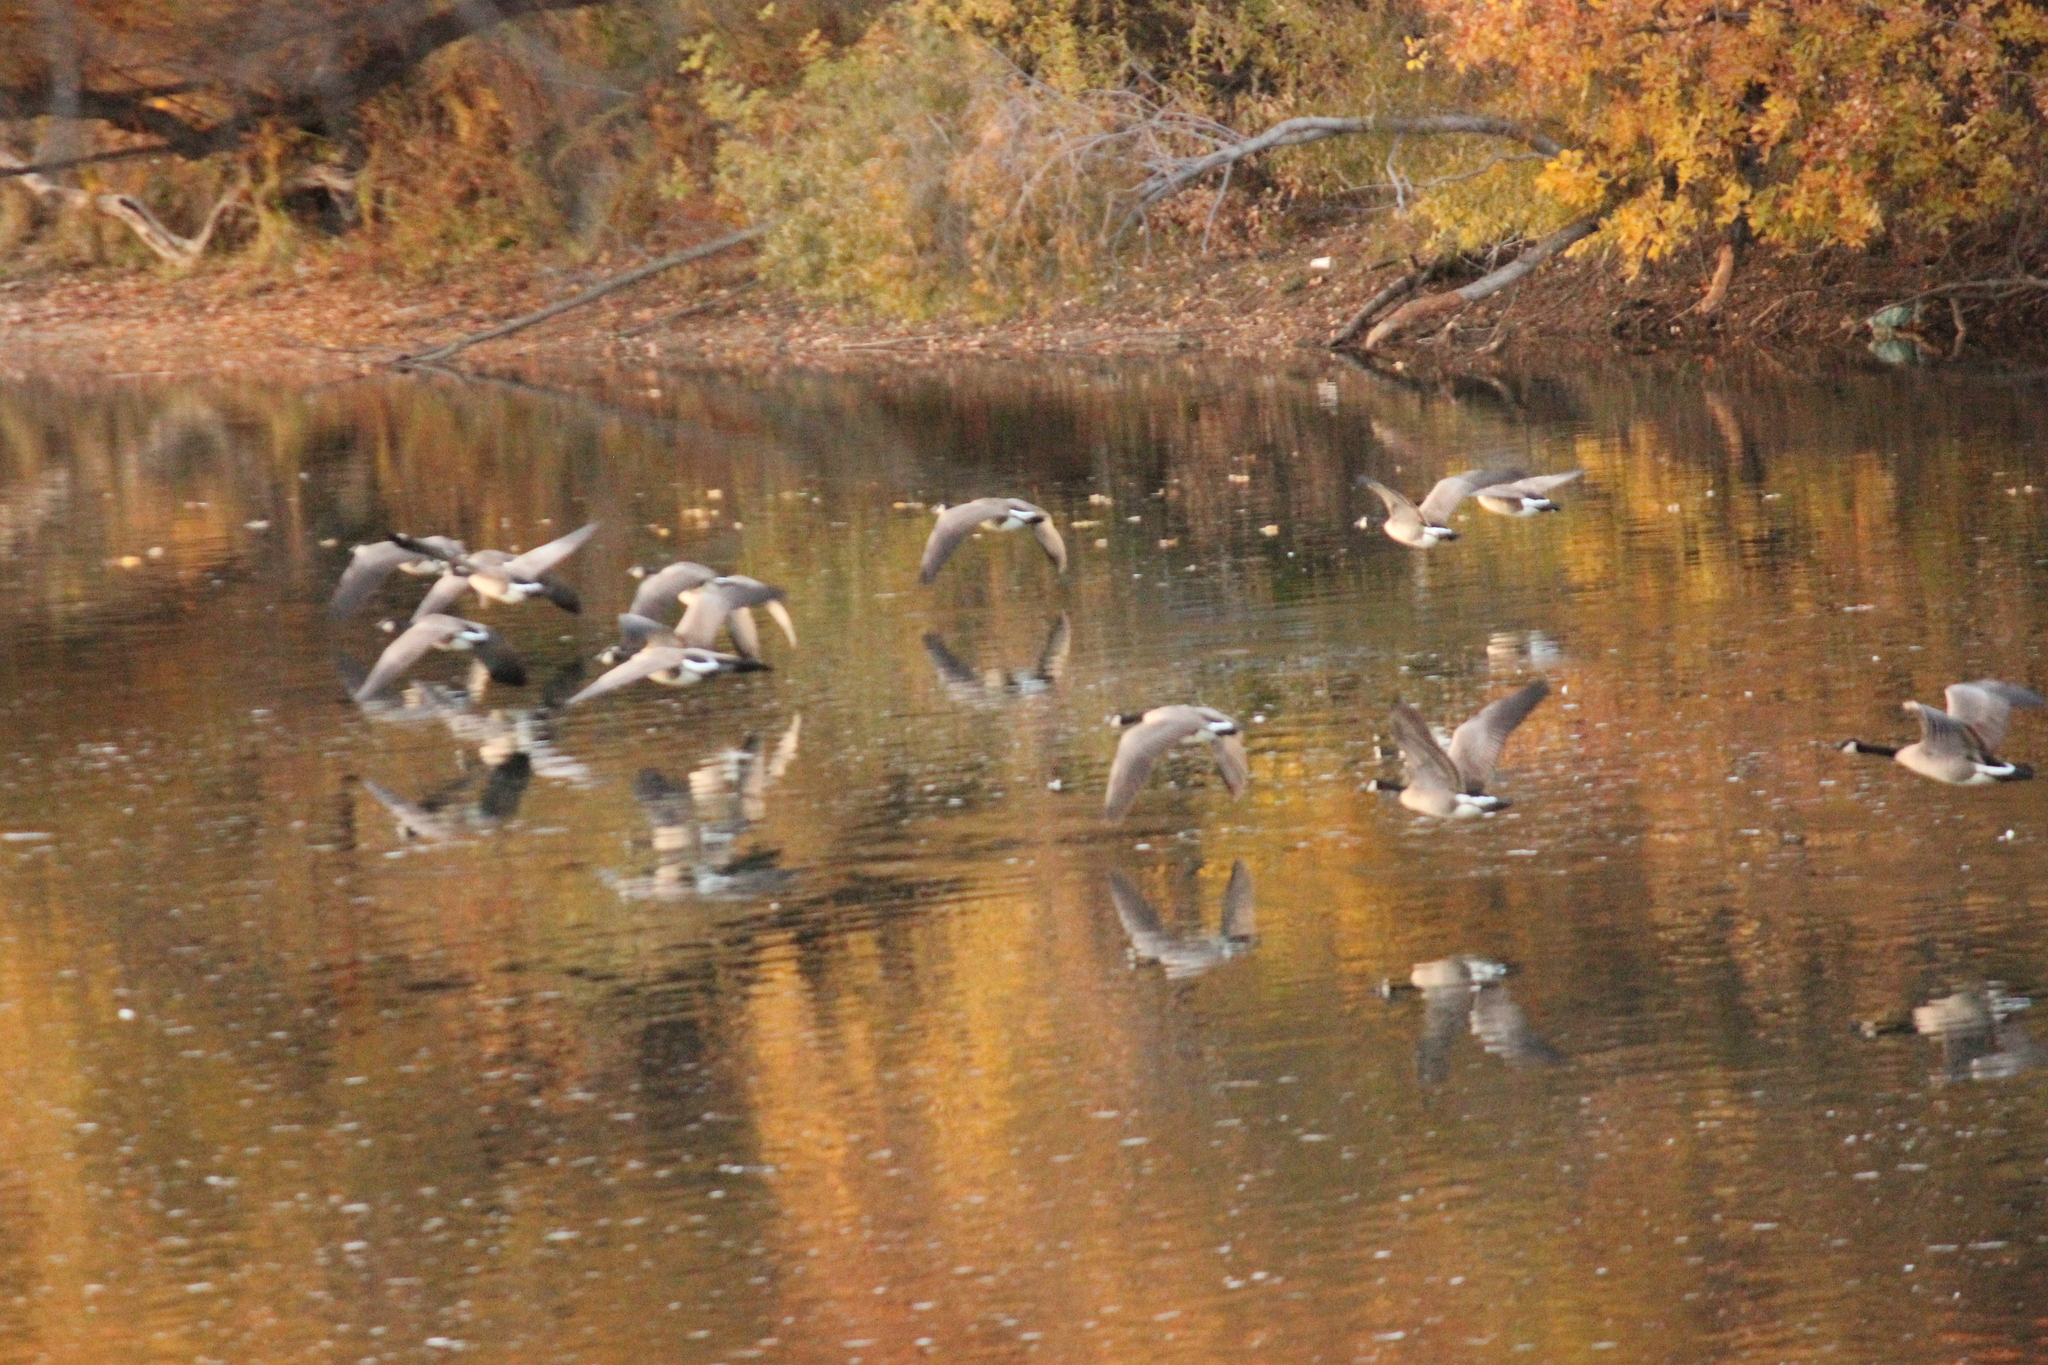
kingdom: Animalia
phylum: Chordata
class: Aves
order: Anseriformes
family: Anatidae
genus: Branta
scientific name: Branta canadensis
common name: Canada goose
